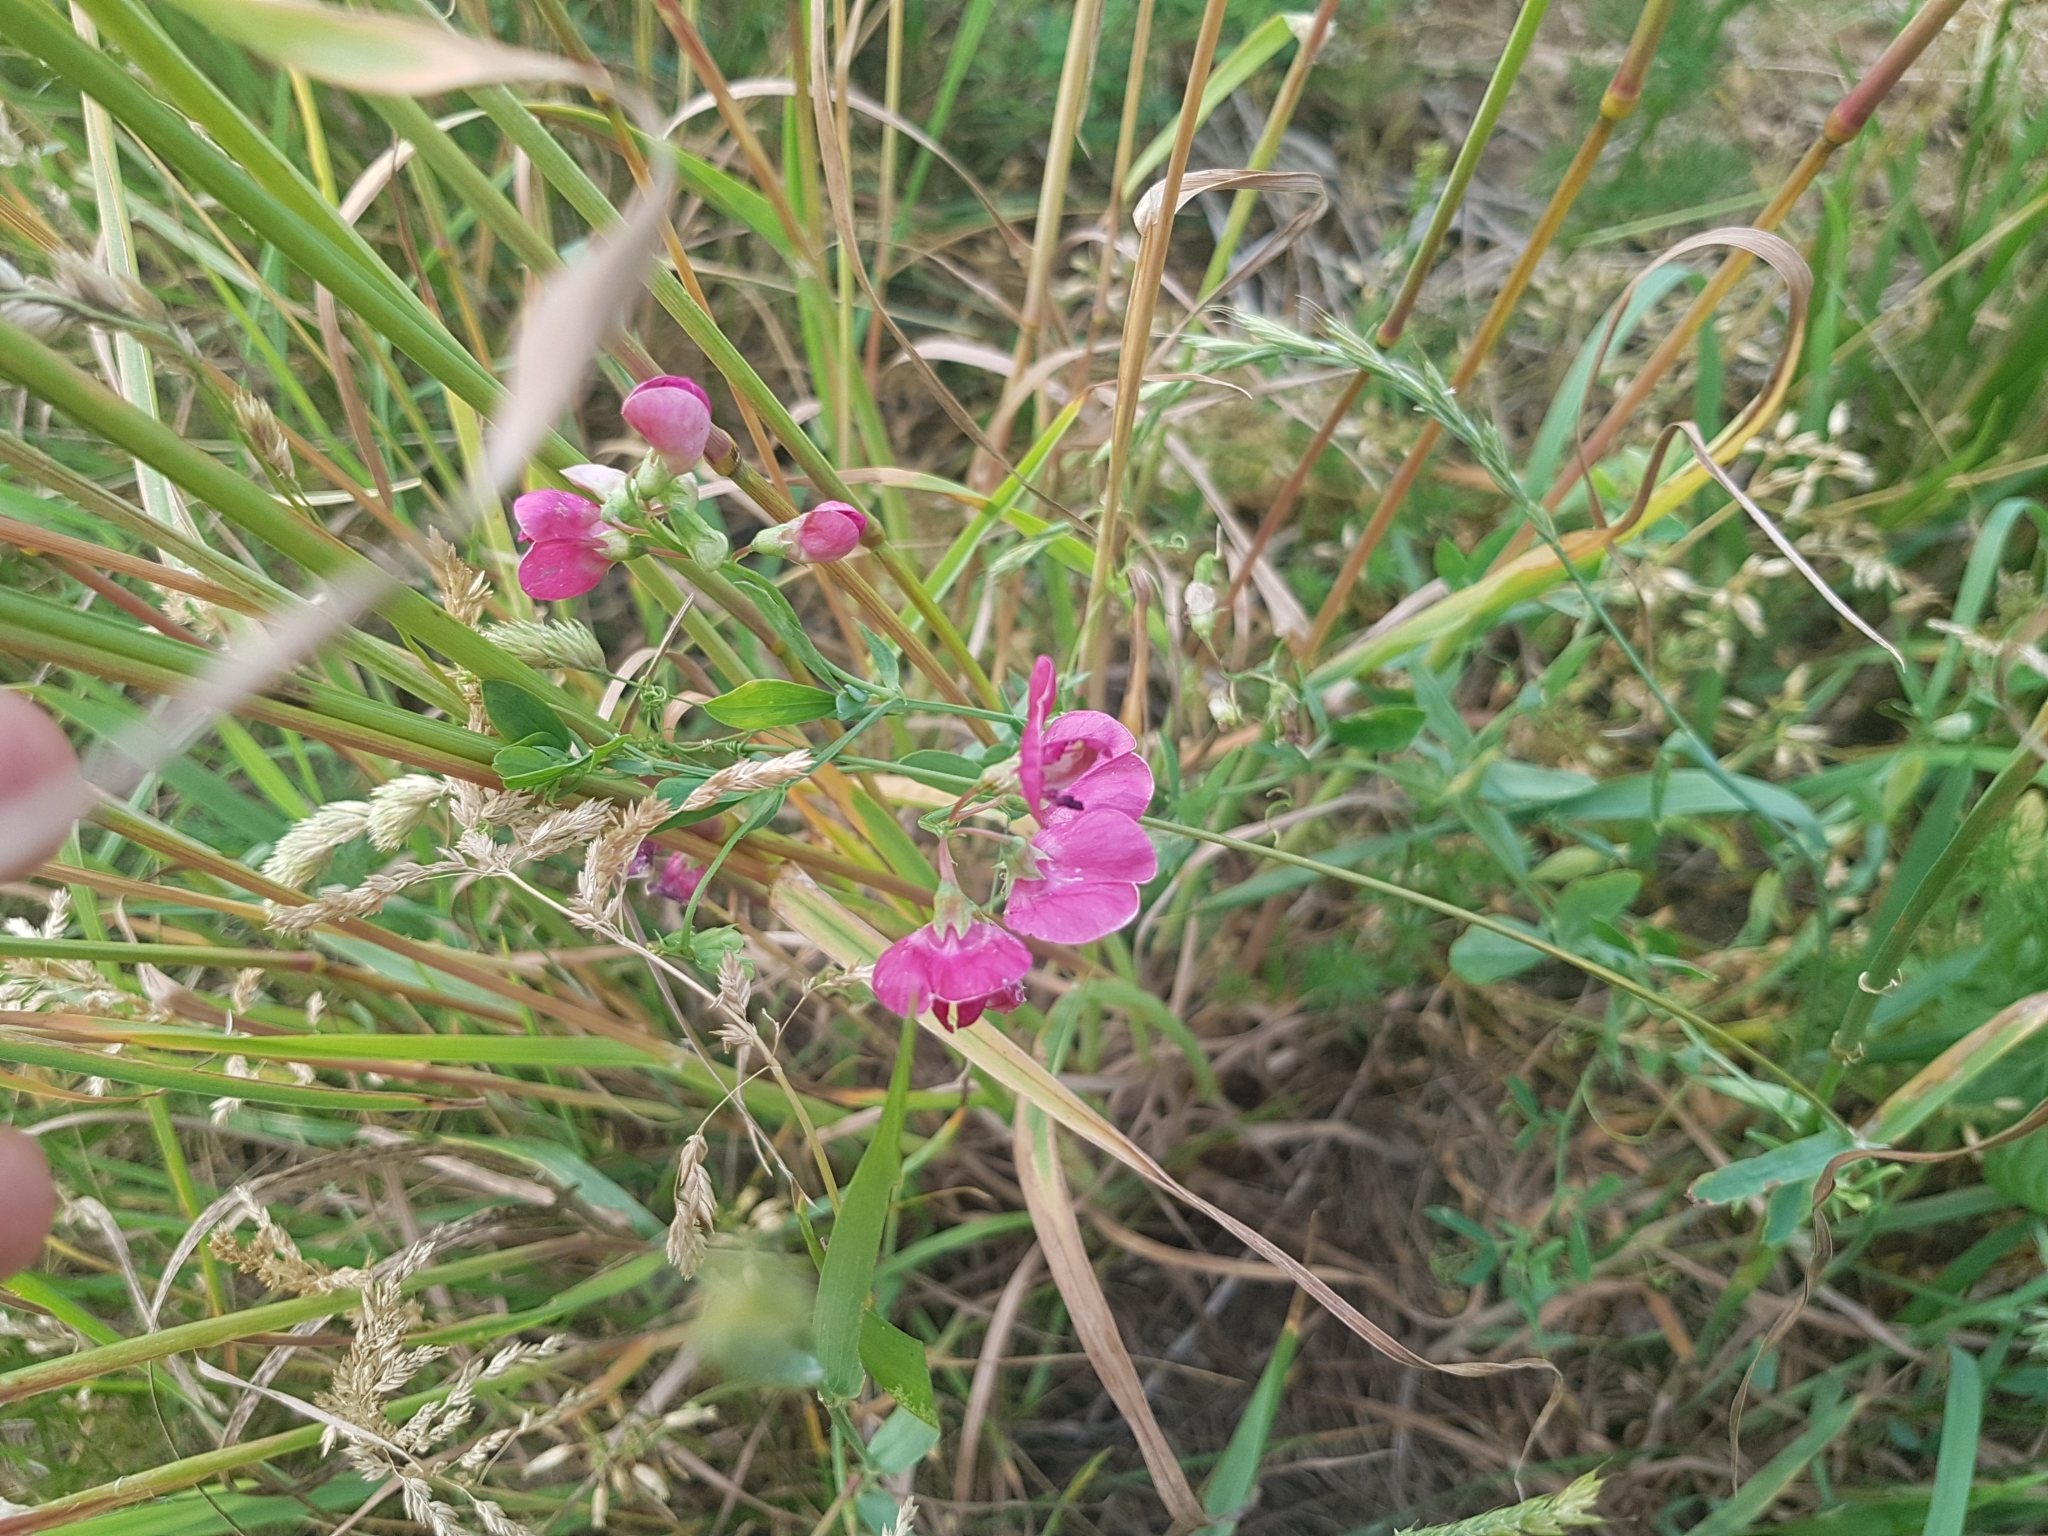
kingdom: Plantae
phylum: Tracheophyta
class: Magnoliopsida
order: Fabales
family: Fabaceae
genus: Lathyrus
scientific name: Lathyrus tuberosus
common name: Tuberous pea
